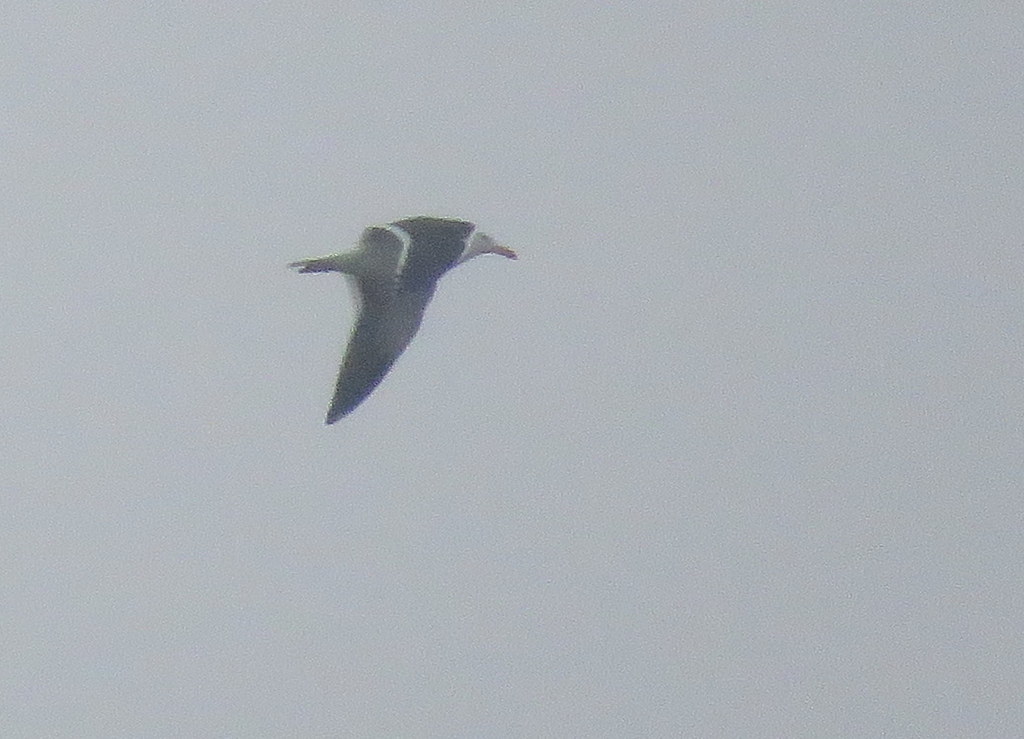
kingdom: Animalia
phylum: Chordata
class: Aves
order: Charadriiformes
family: Laridae
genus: Larus
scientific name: Larus dominicanus
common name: Kelp gull
